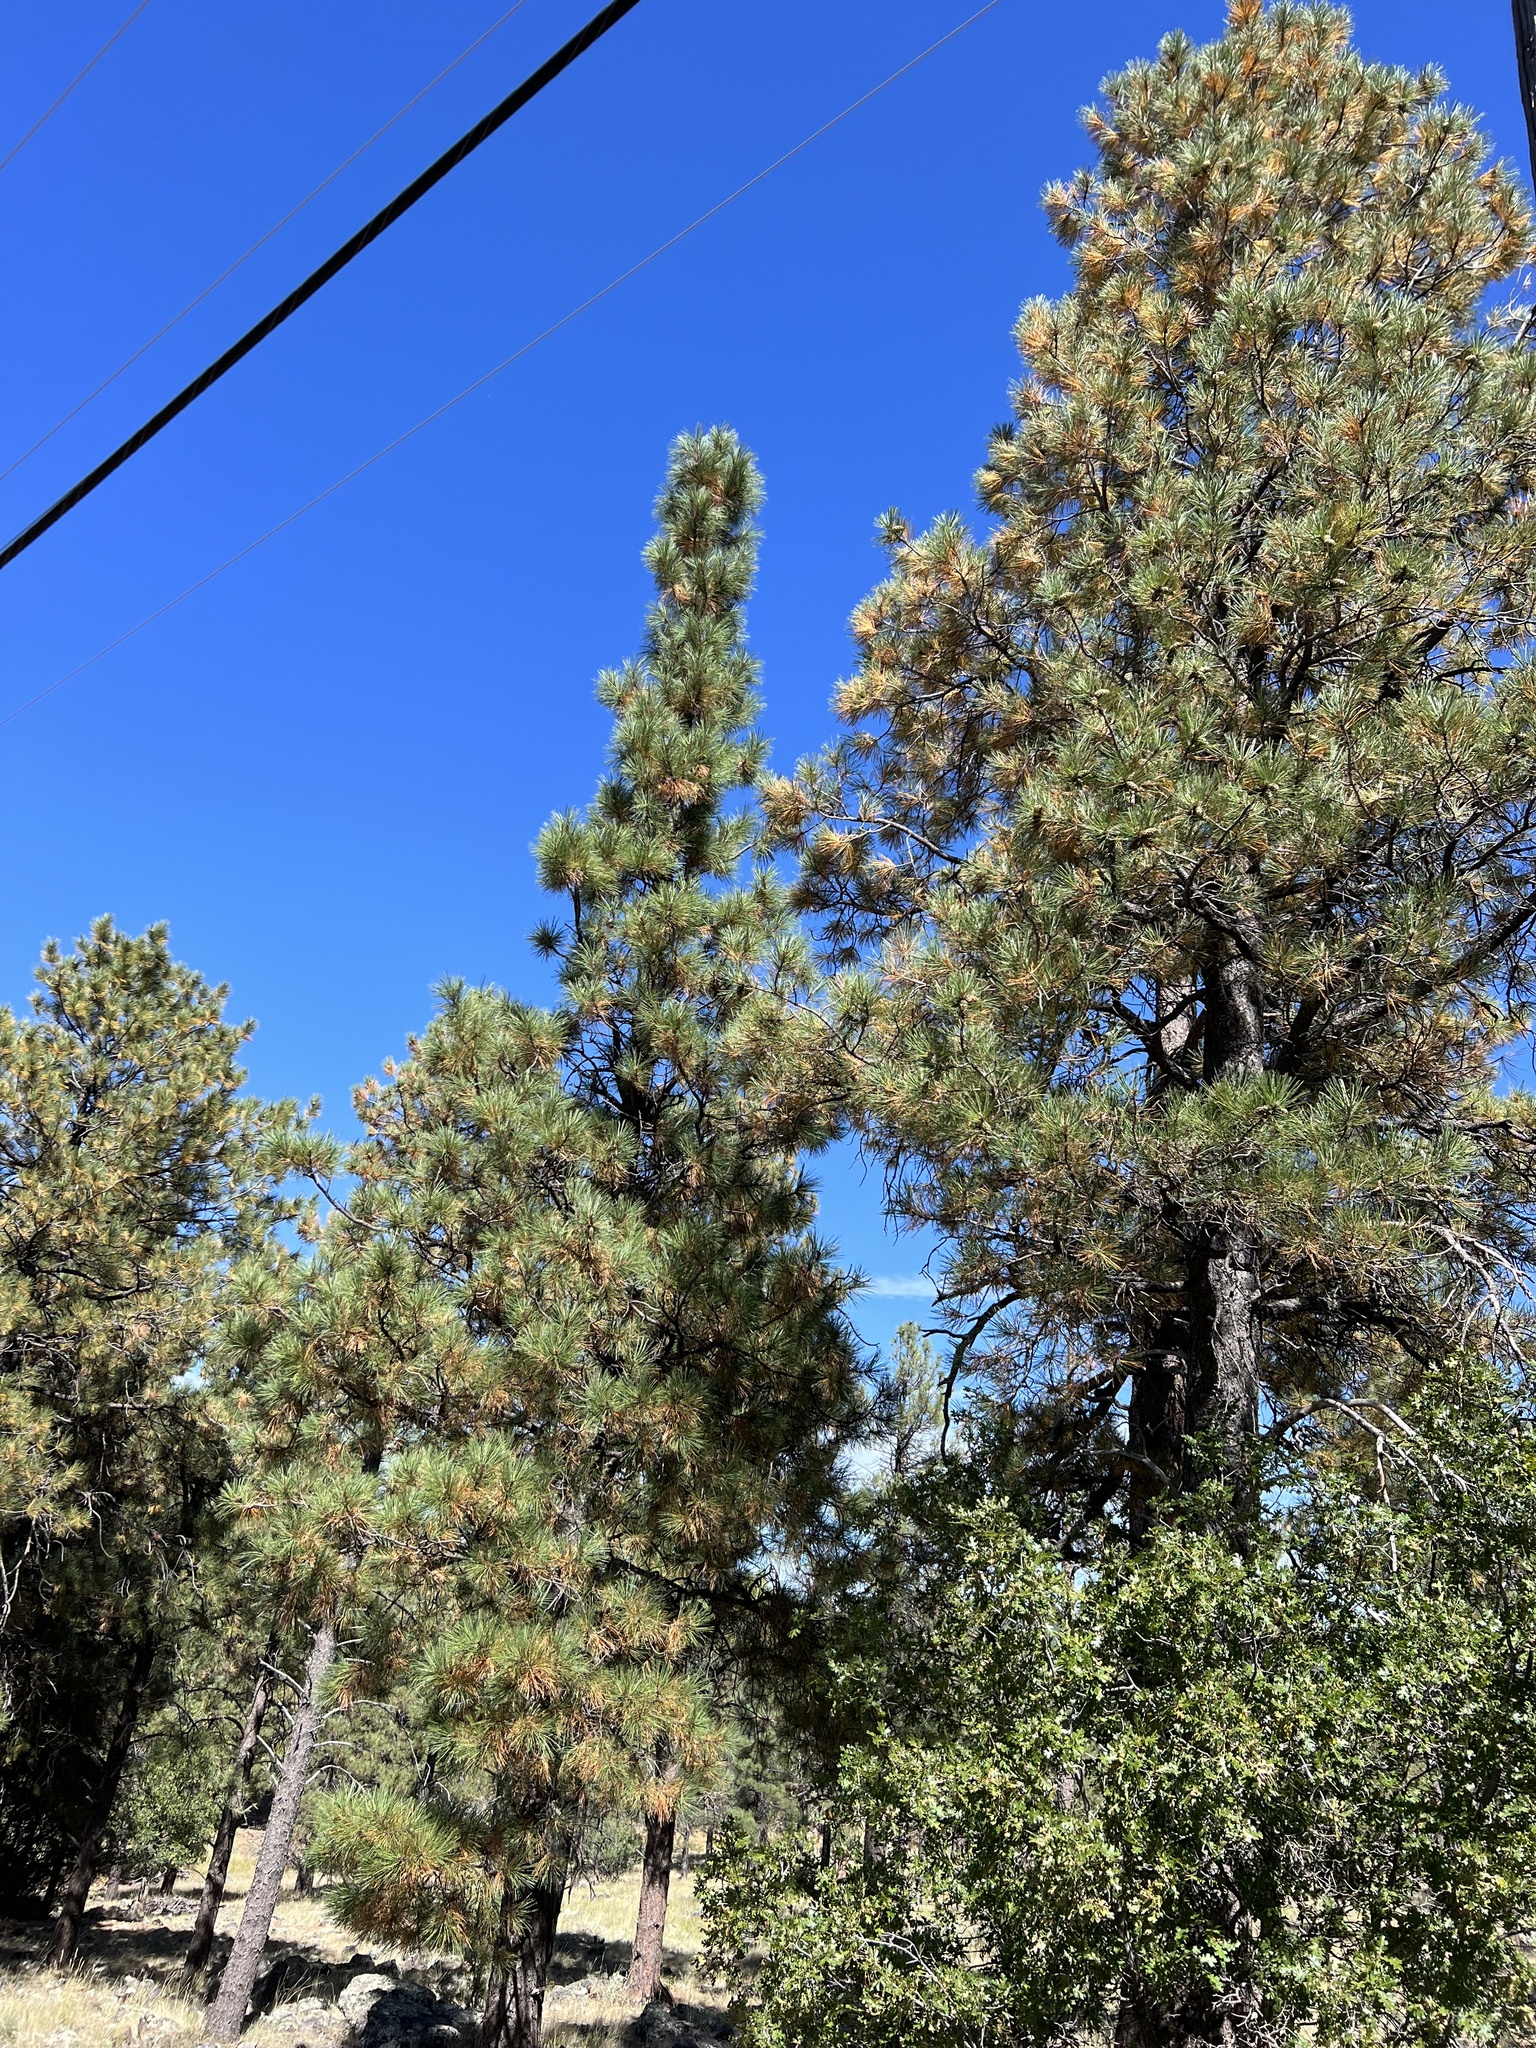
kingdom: Plantae
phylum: Tracheophyta
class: Pinopsida
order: Pinales
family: Pinaceae
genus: Pinus
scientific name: Pinus ponderosa
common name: Western yellow-pine
